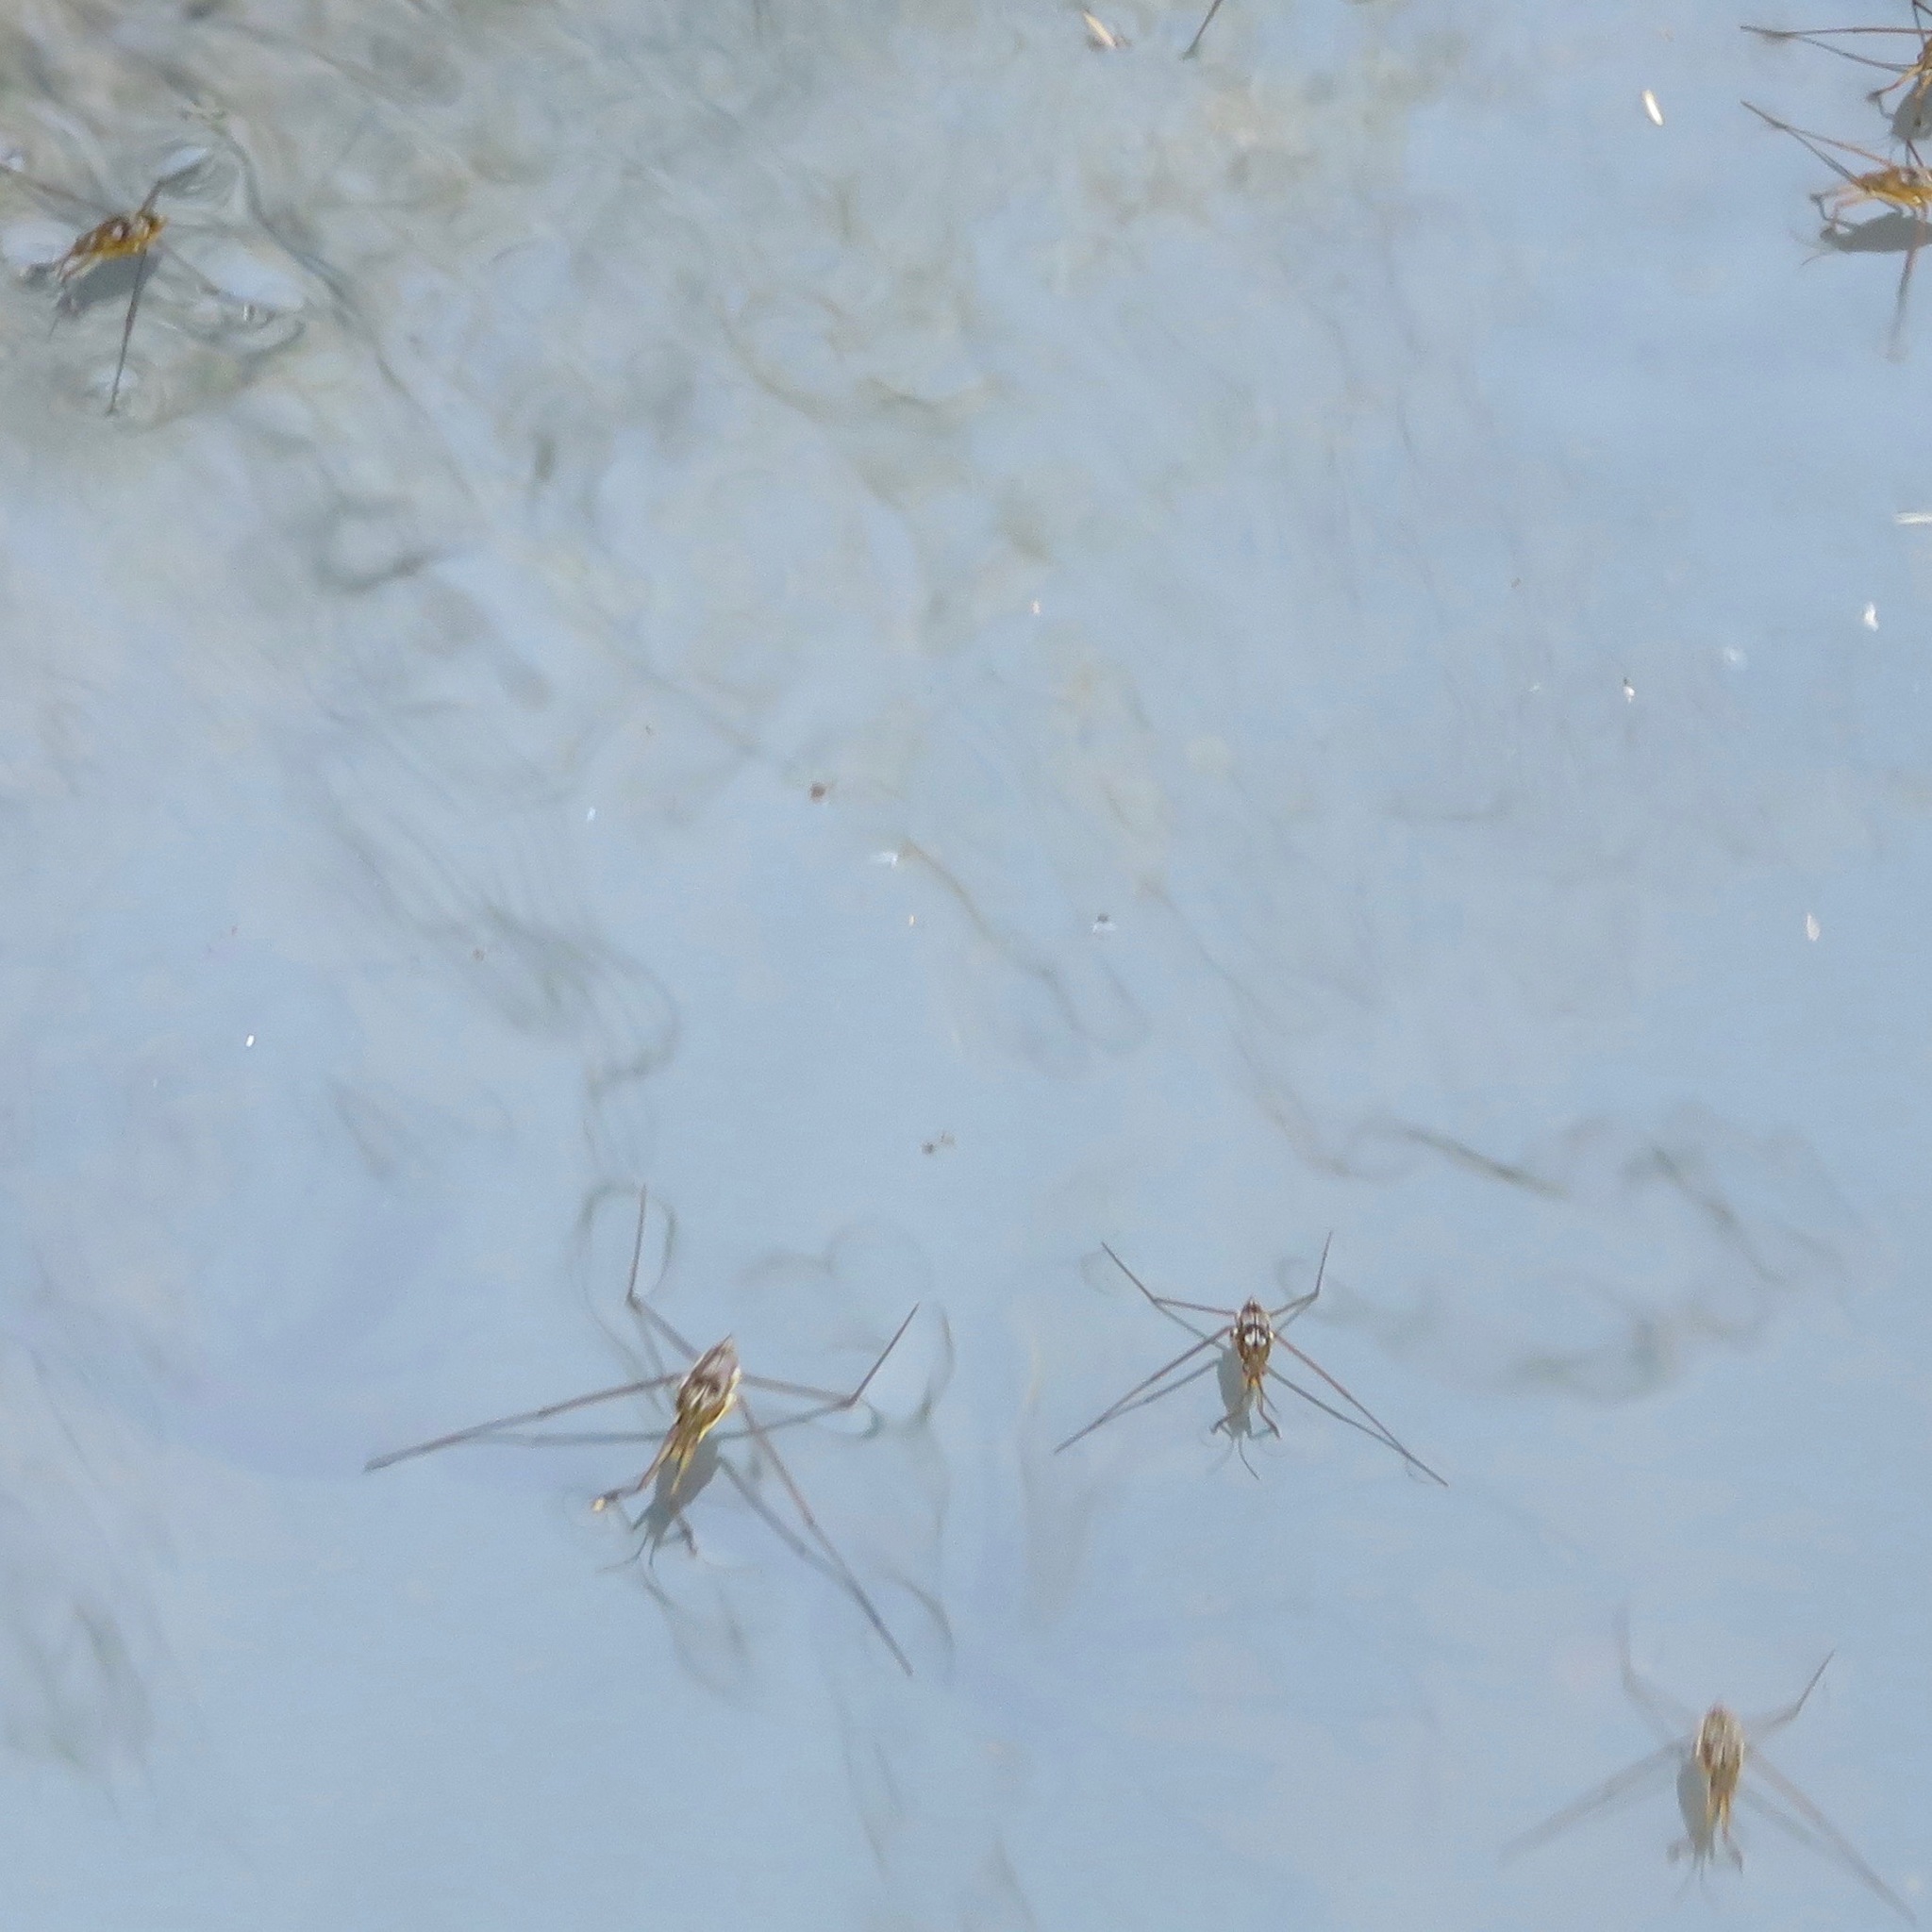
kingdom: Animalia
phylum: Arthropoda
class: Insecta
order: Hemiptera
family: Gerridae
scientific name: Gerridae
